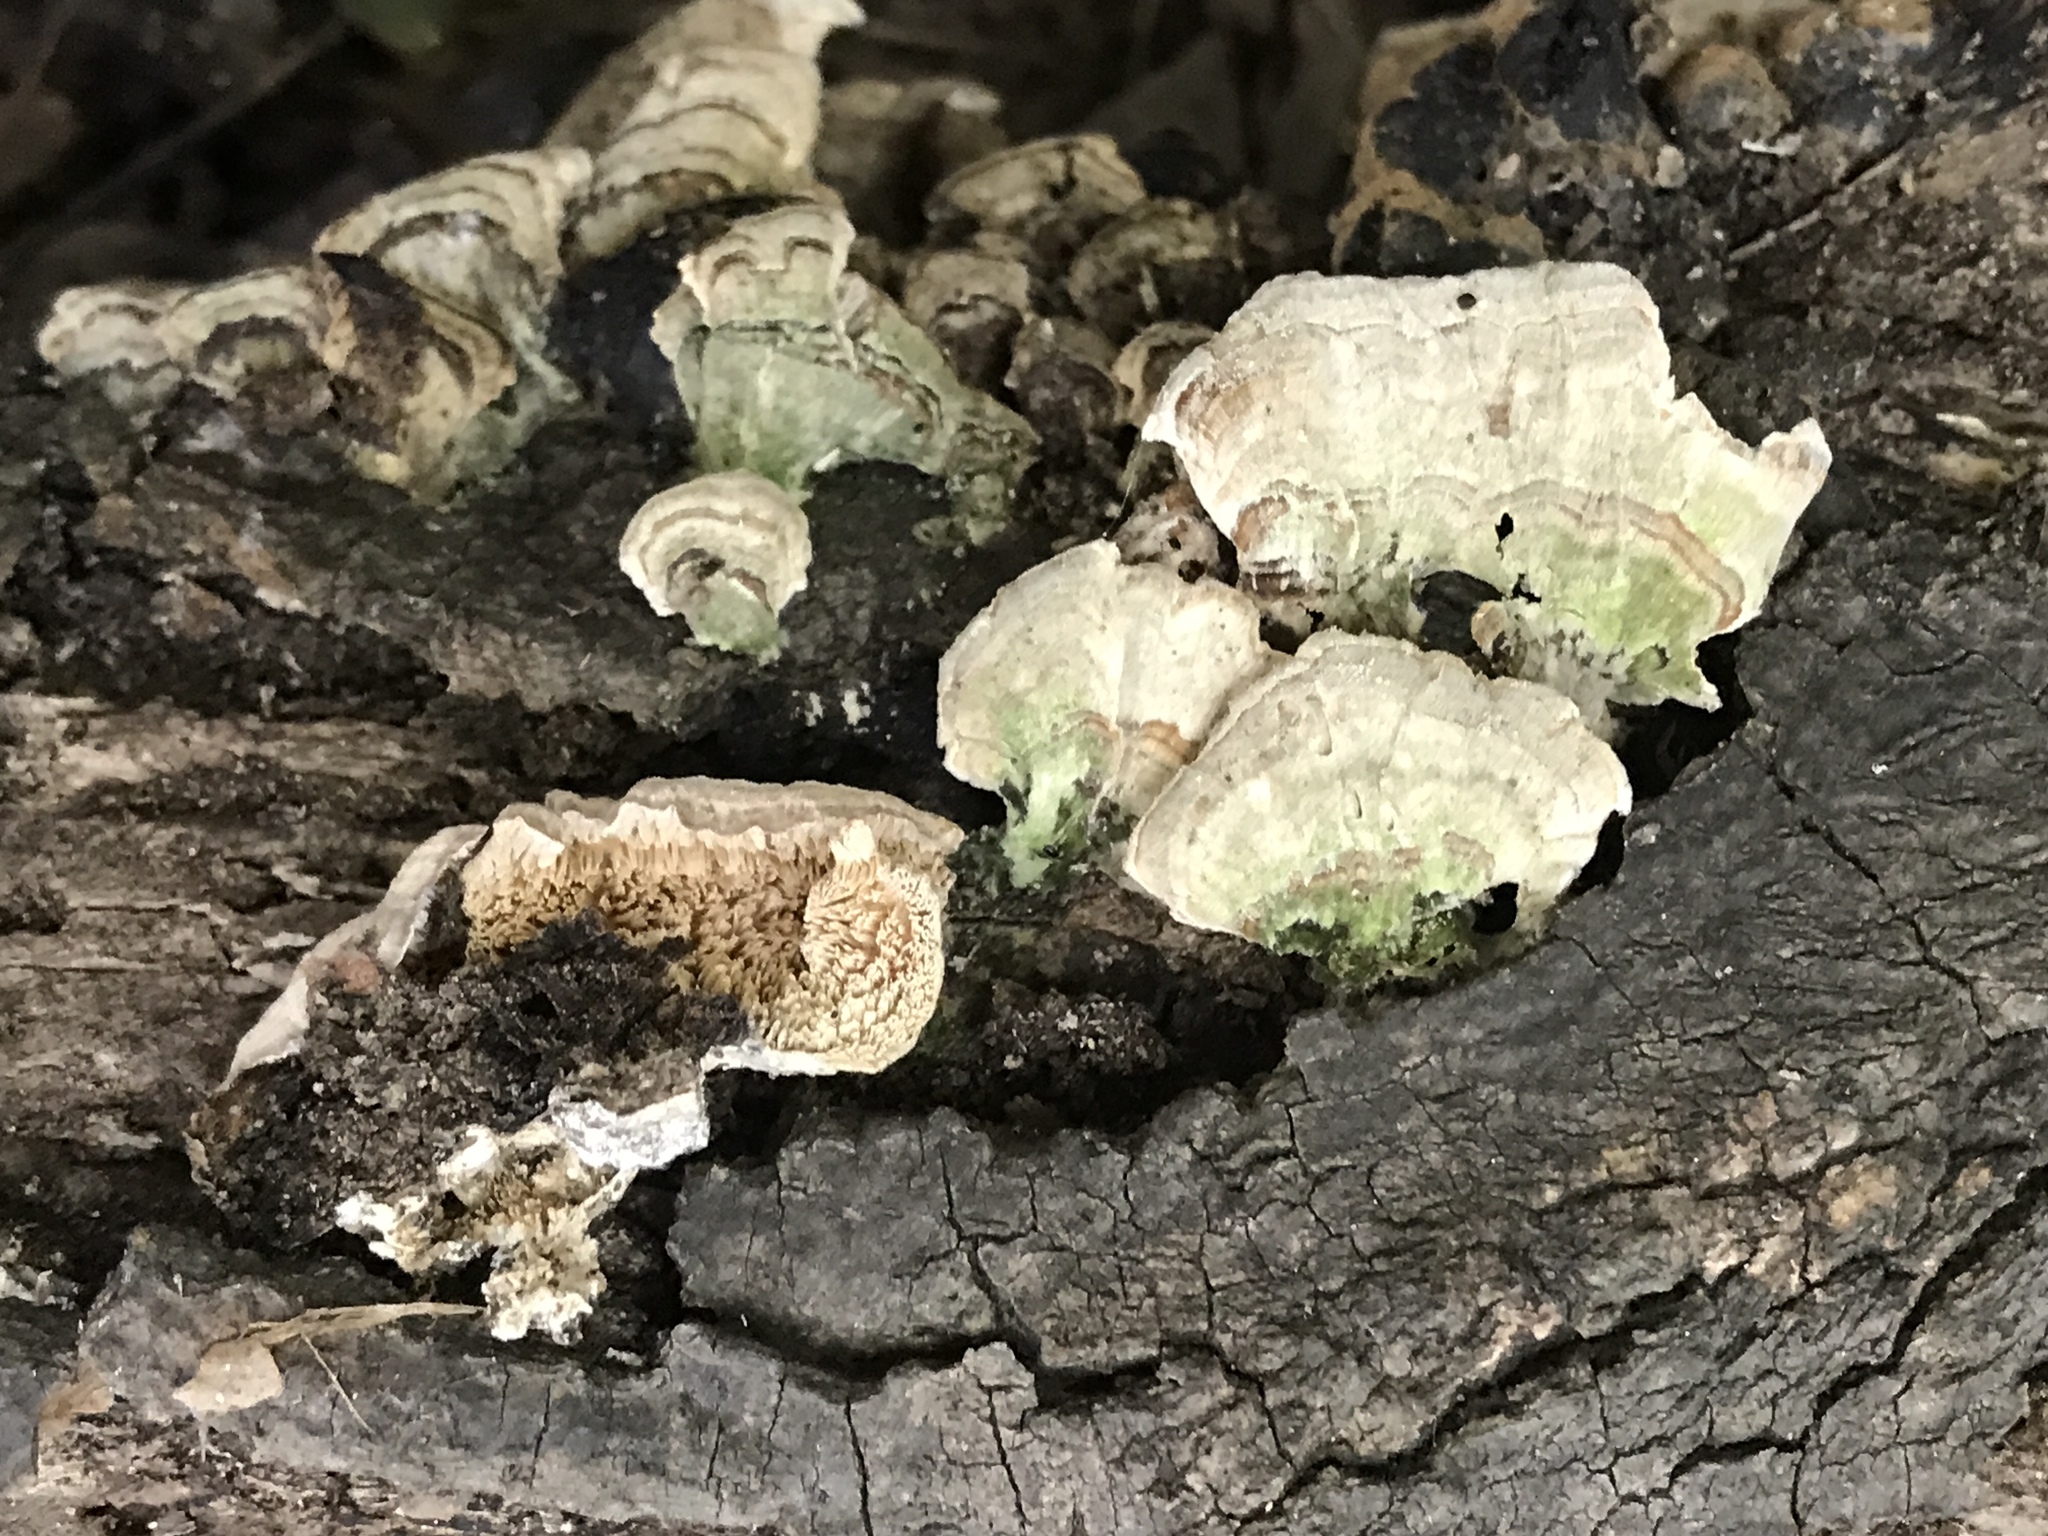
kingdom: Fungi
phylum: Basidiomycota
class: Agaricomycetes
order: Hymenochaetales
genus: Trichaptum
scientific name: Trichaptum biforme
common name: Violet-toothed polypore
